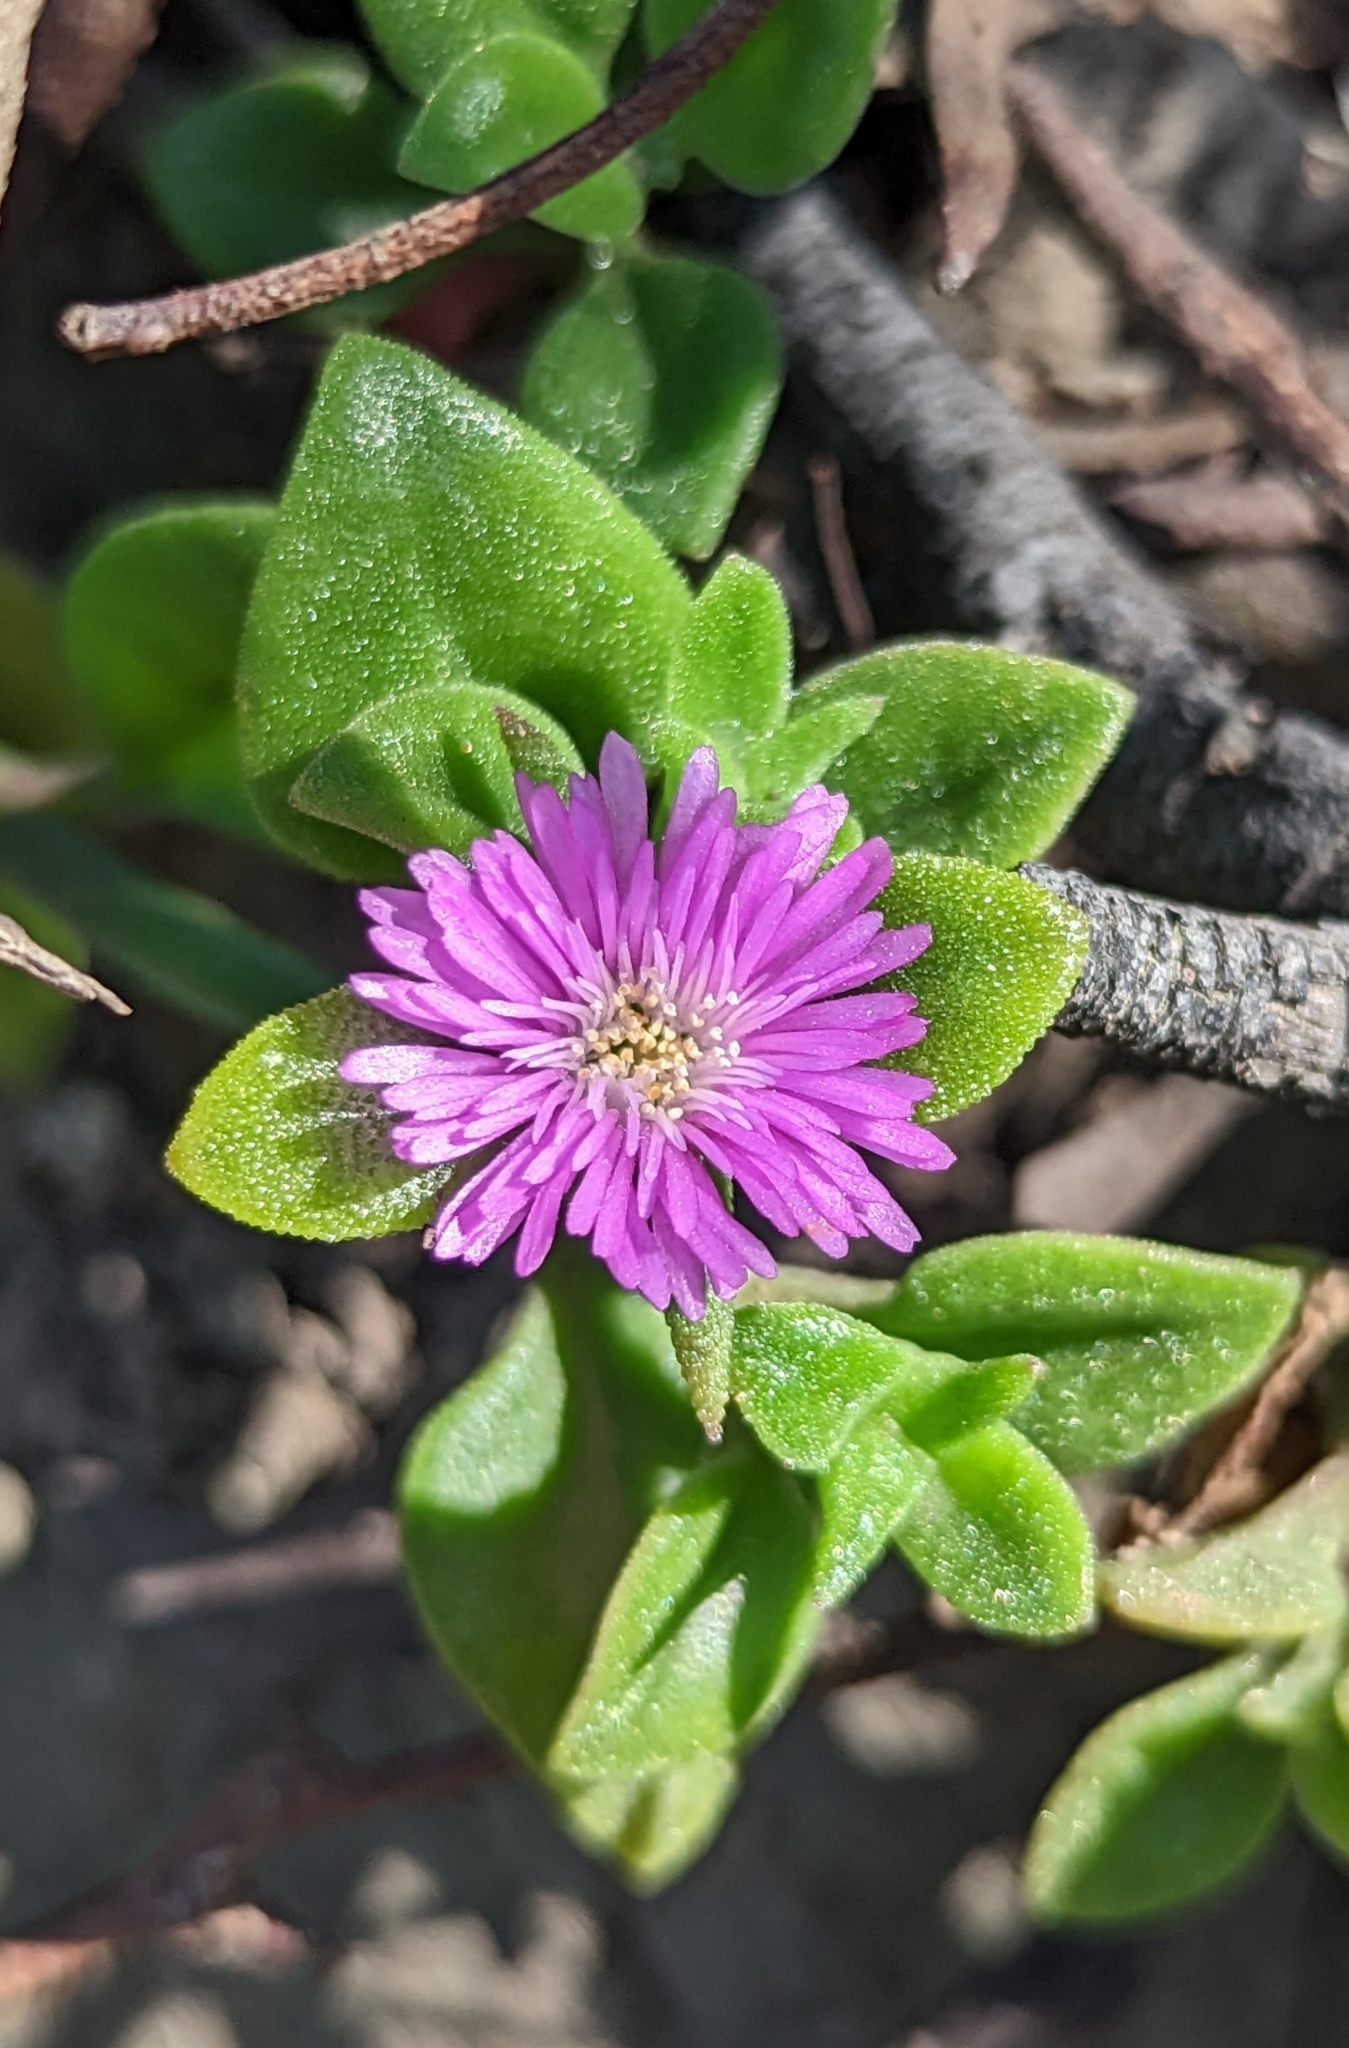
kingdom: Plantae
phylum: Tracheophyta
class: Magnoliopsida
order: Caryophyllales
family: Aizoaceae
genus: Mesembryanthemum
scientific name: Mesembryanthemum cordifolium
